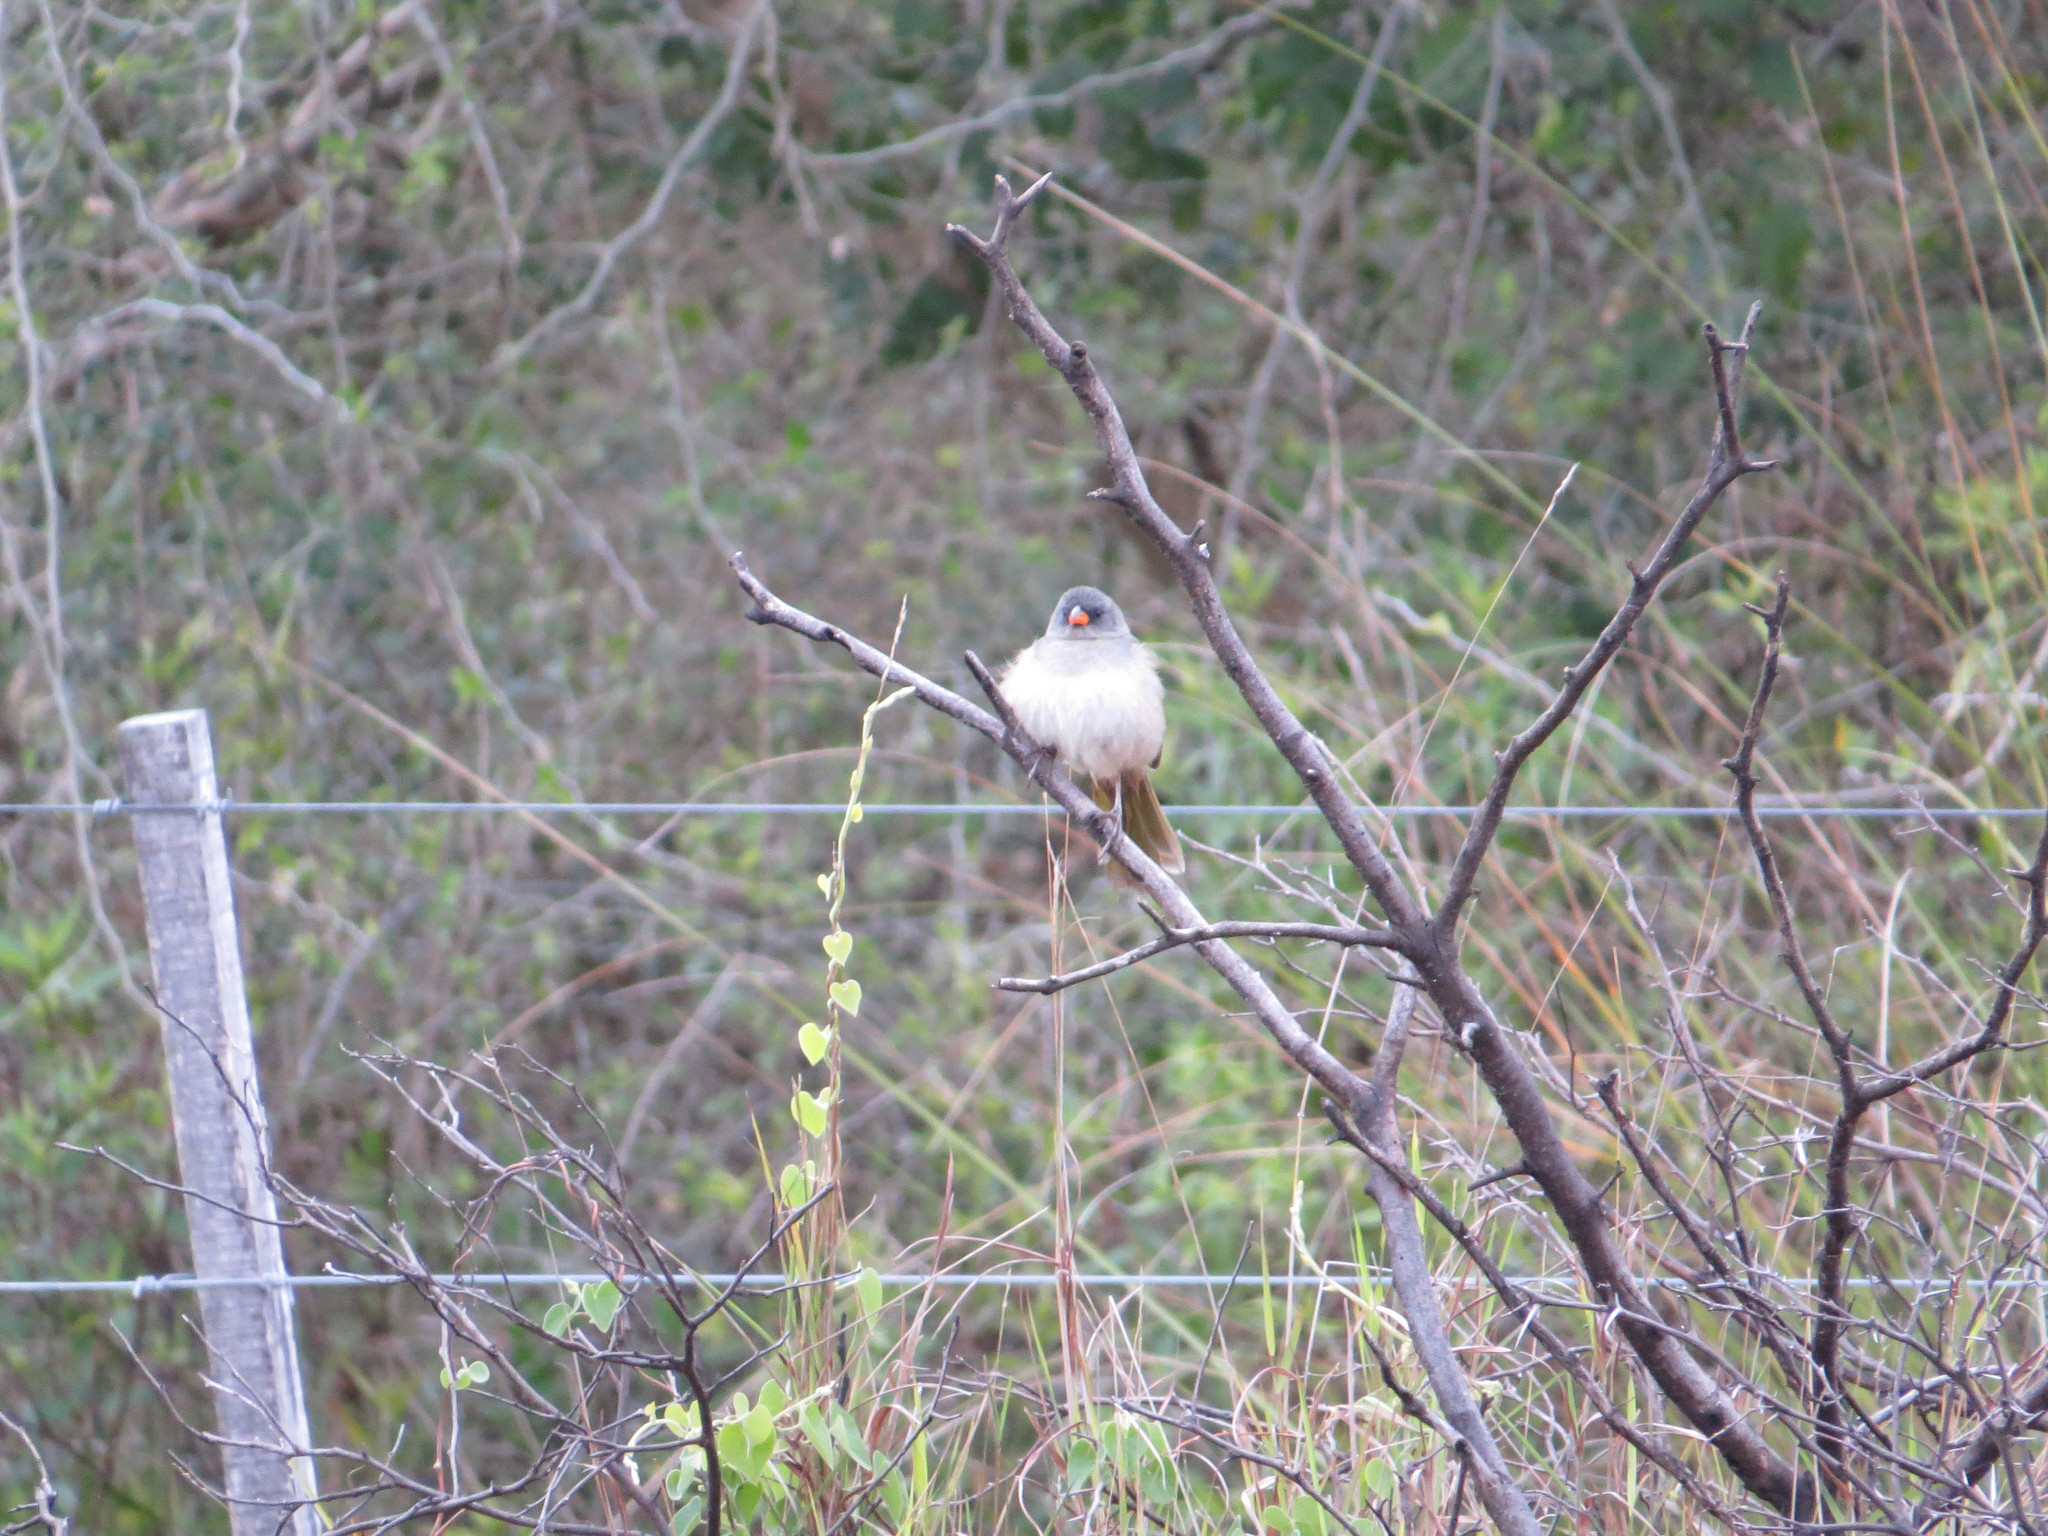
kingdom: Animalia
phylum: Chordata
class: Aves
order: Passeriformes
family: Thraupidae
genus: Embernagra
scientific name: Embernagra platensis
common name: Pampa finch
